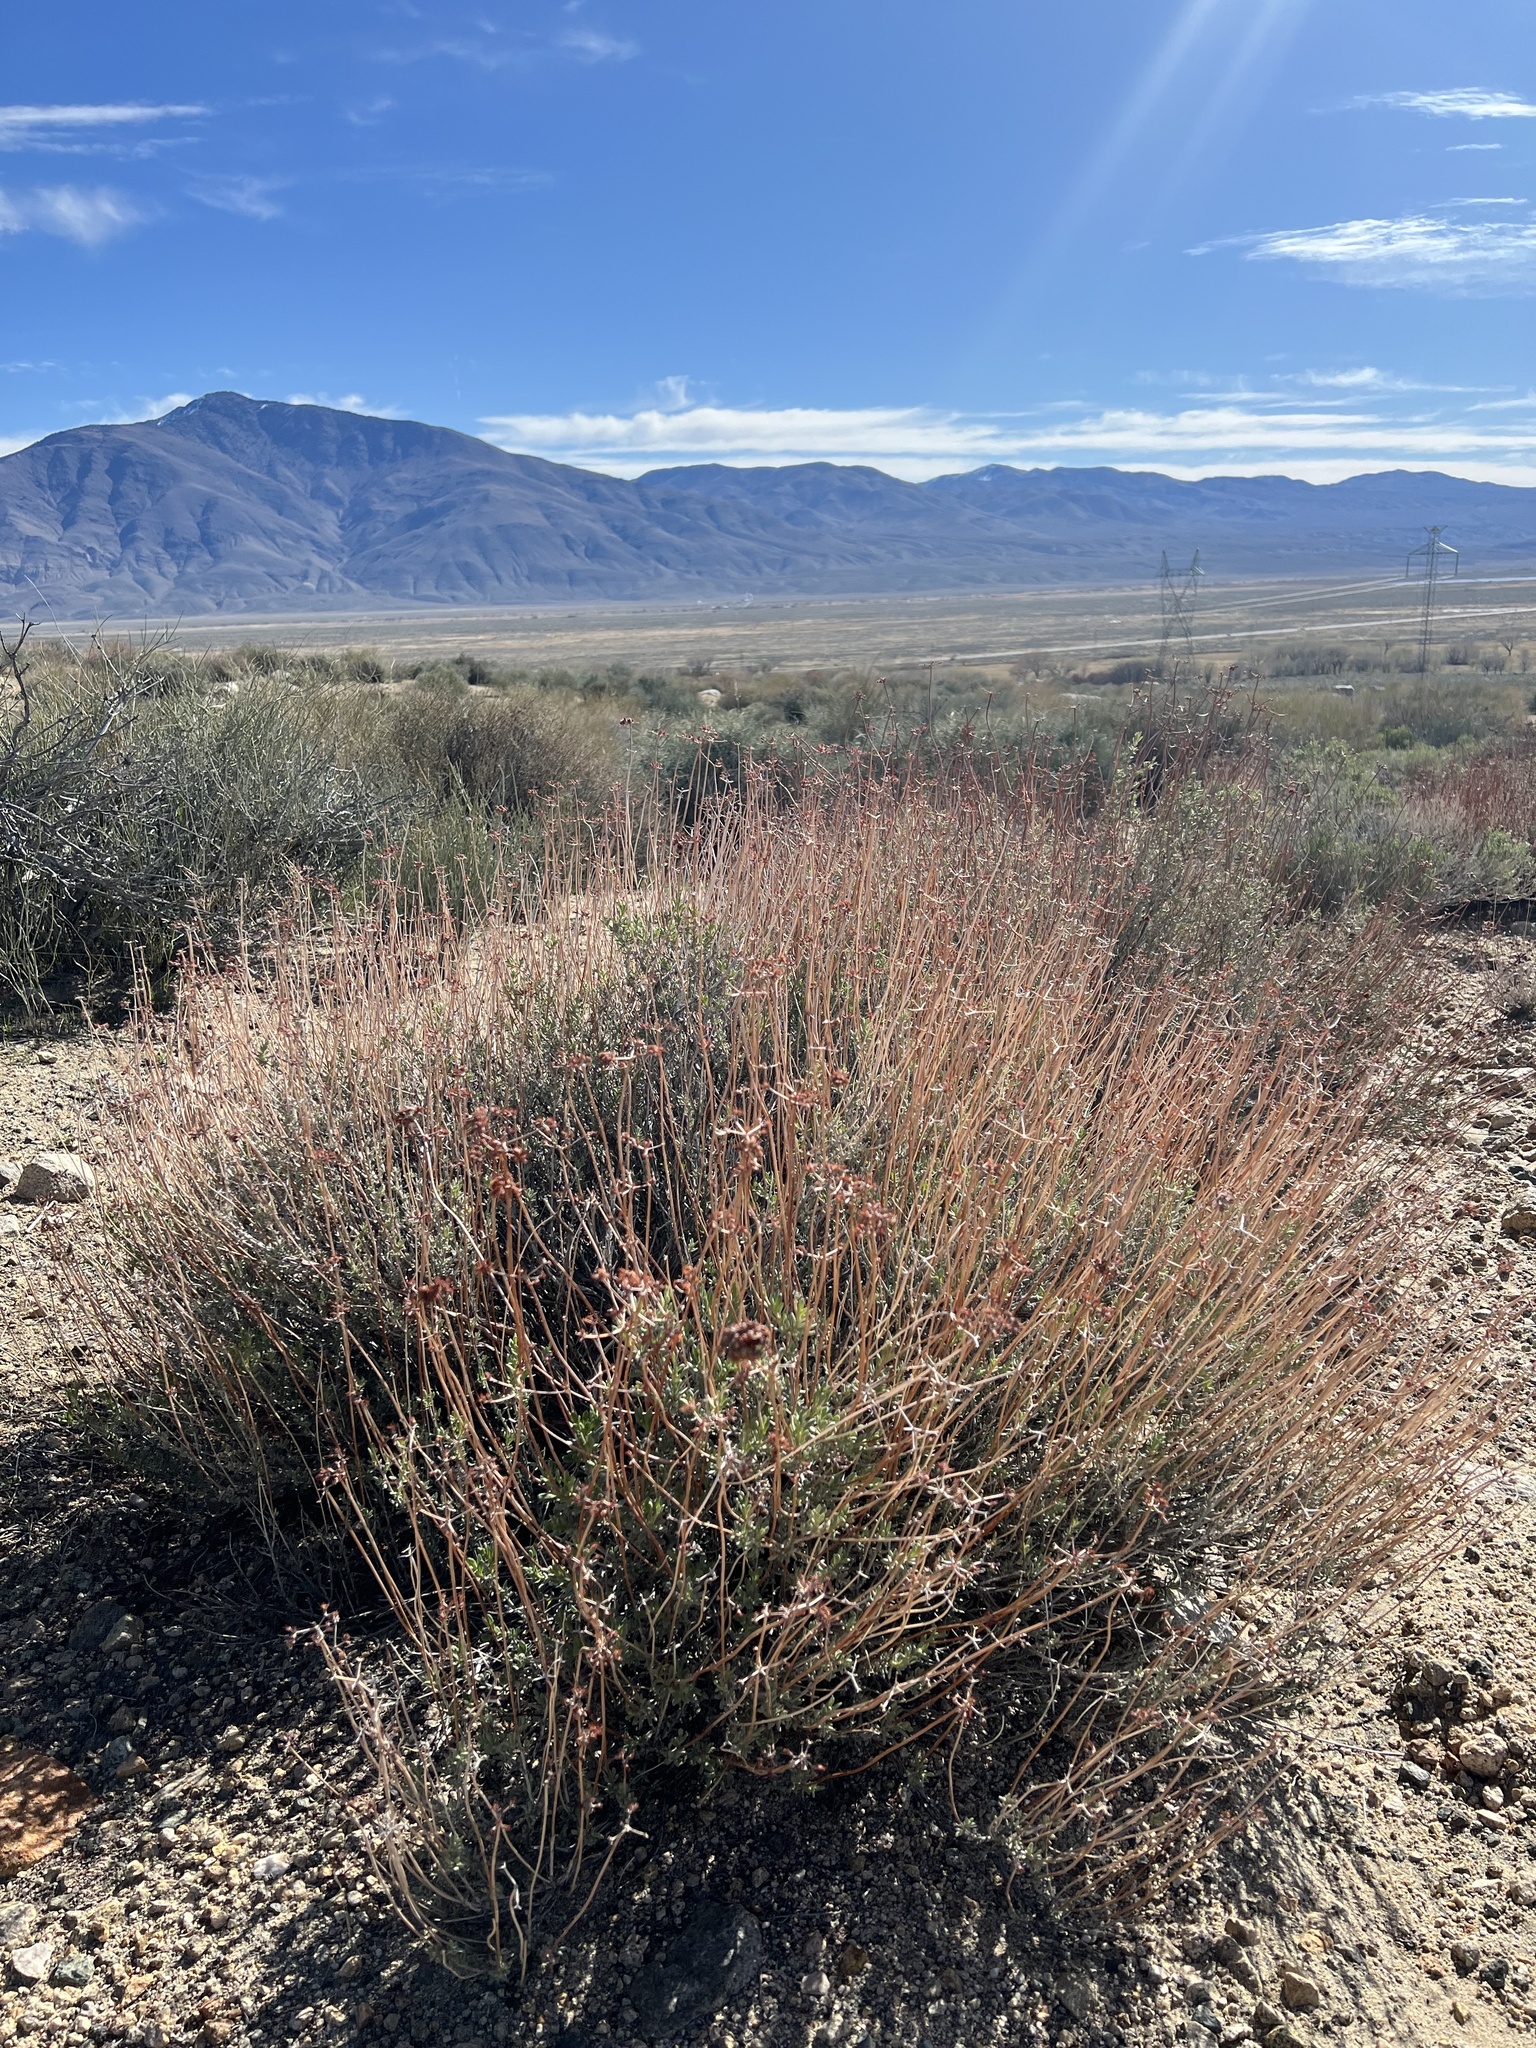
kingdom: Plantae
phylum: Tracheophyta
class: Magnoliopsida
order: Caryophyllales
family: Polygonaceae
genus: Eriogonum
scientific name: Eriogonum fasciculatum
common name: California wild buckwheat
